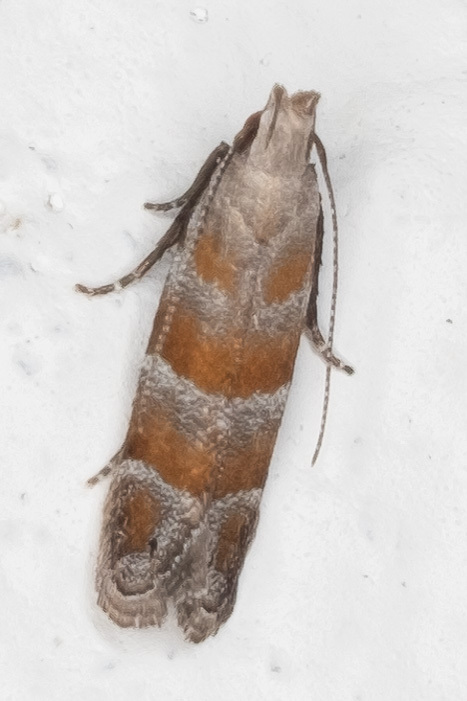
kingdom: Animalia
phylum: Arthropoda
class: Insecta
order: Lepidoptera
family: Gelechiidae
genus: Battaristis
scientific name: Battaristis vittella
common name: Orange stripe-backed moth
